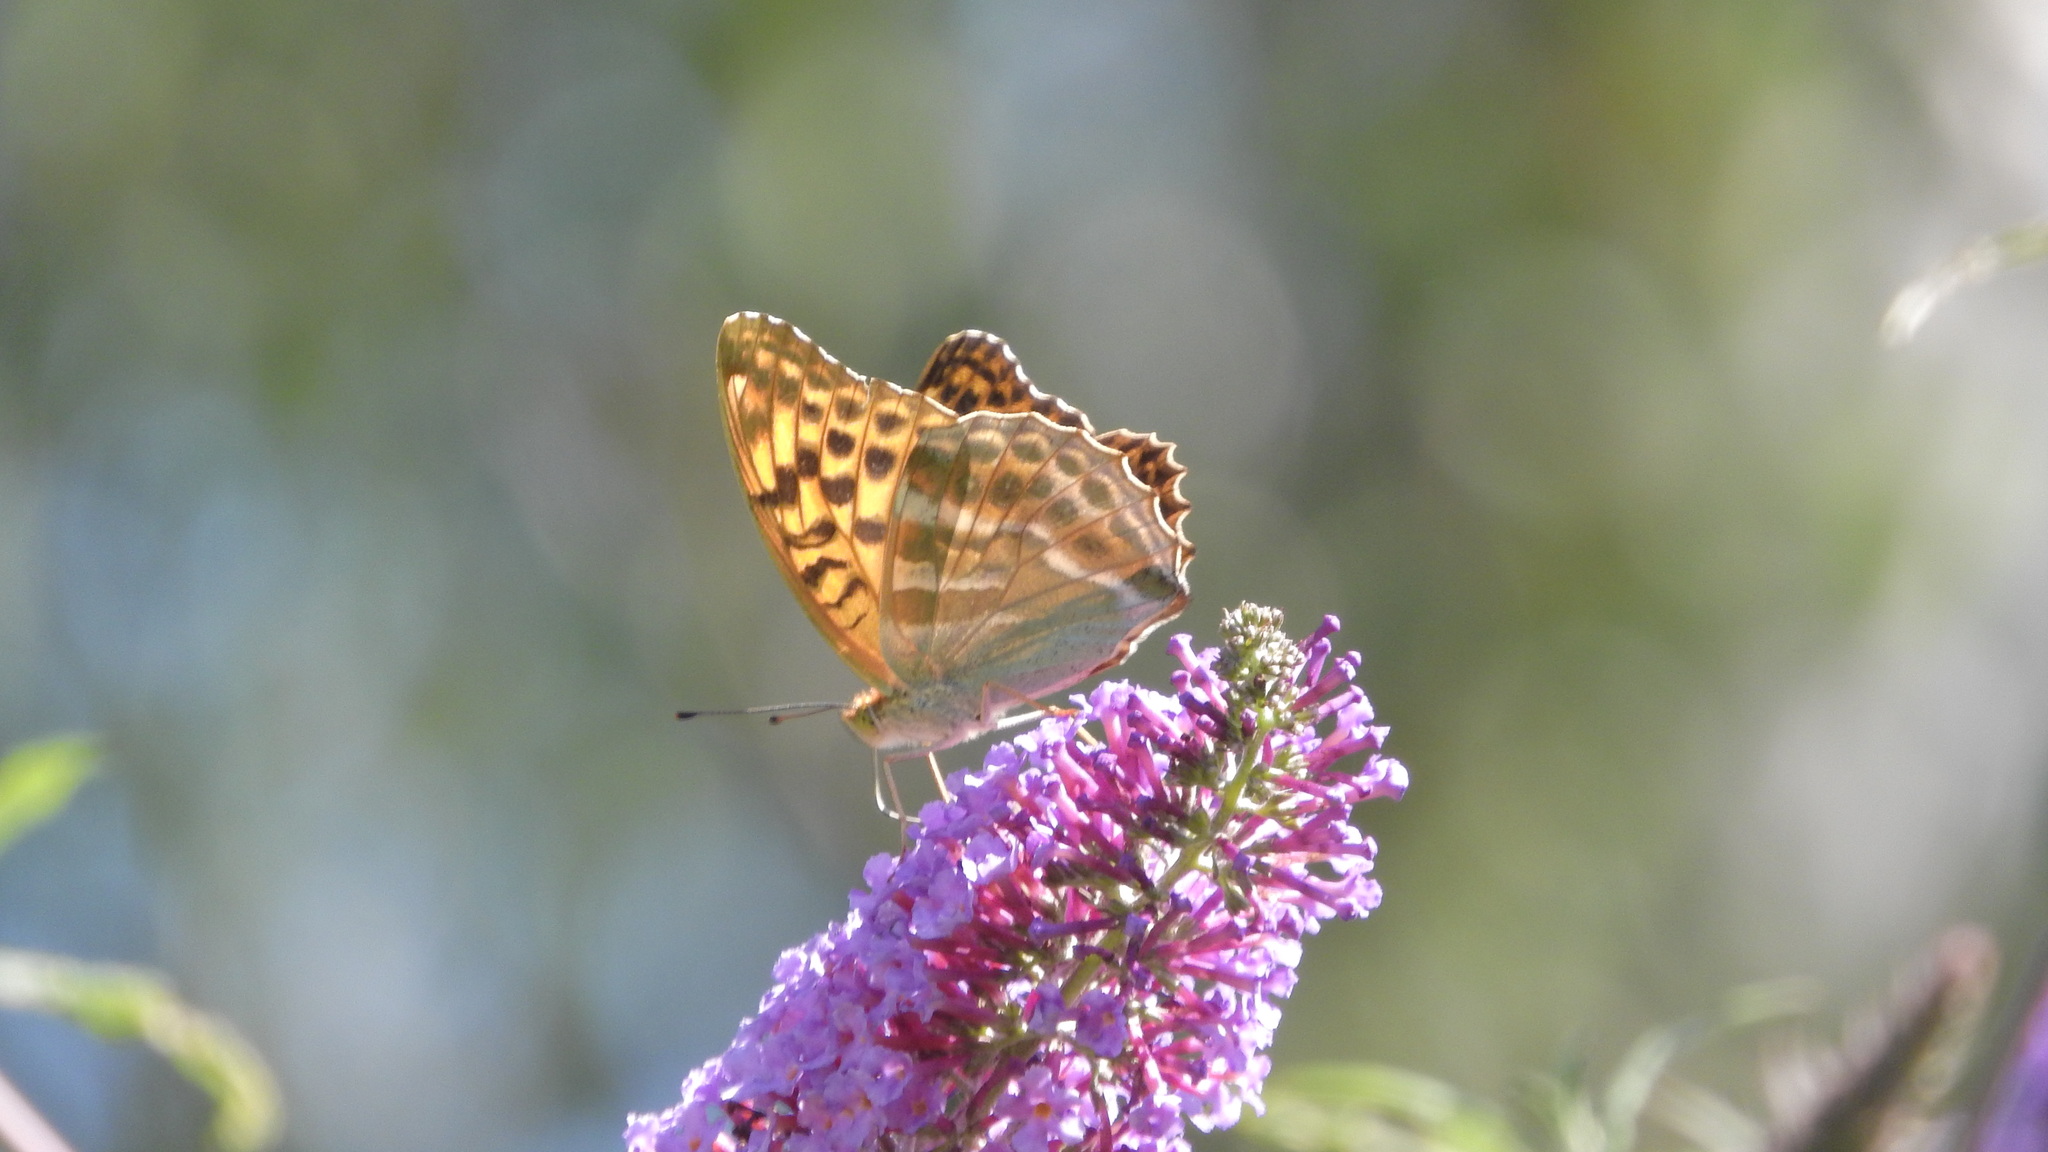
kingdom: Animalia
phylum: Arthropoda
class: Insecta
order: Lepidoptera
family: Nymphalidae
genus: Argynnis
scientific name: Argynnis paphia
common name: Silver-washed fritillary
